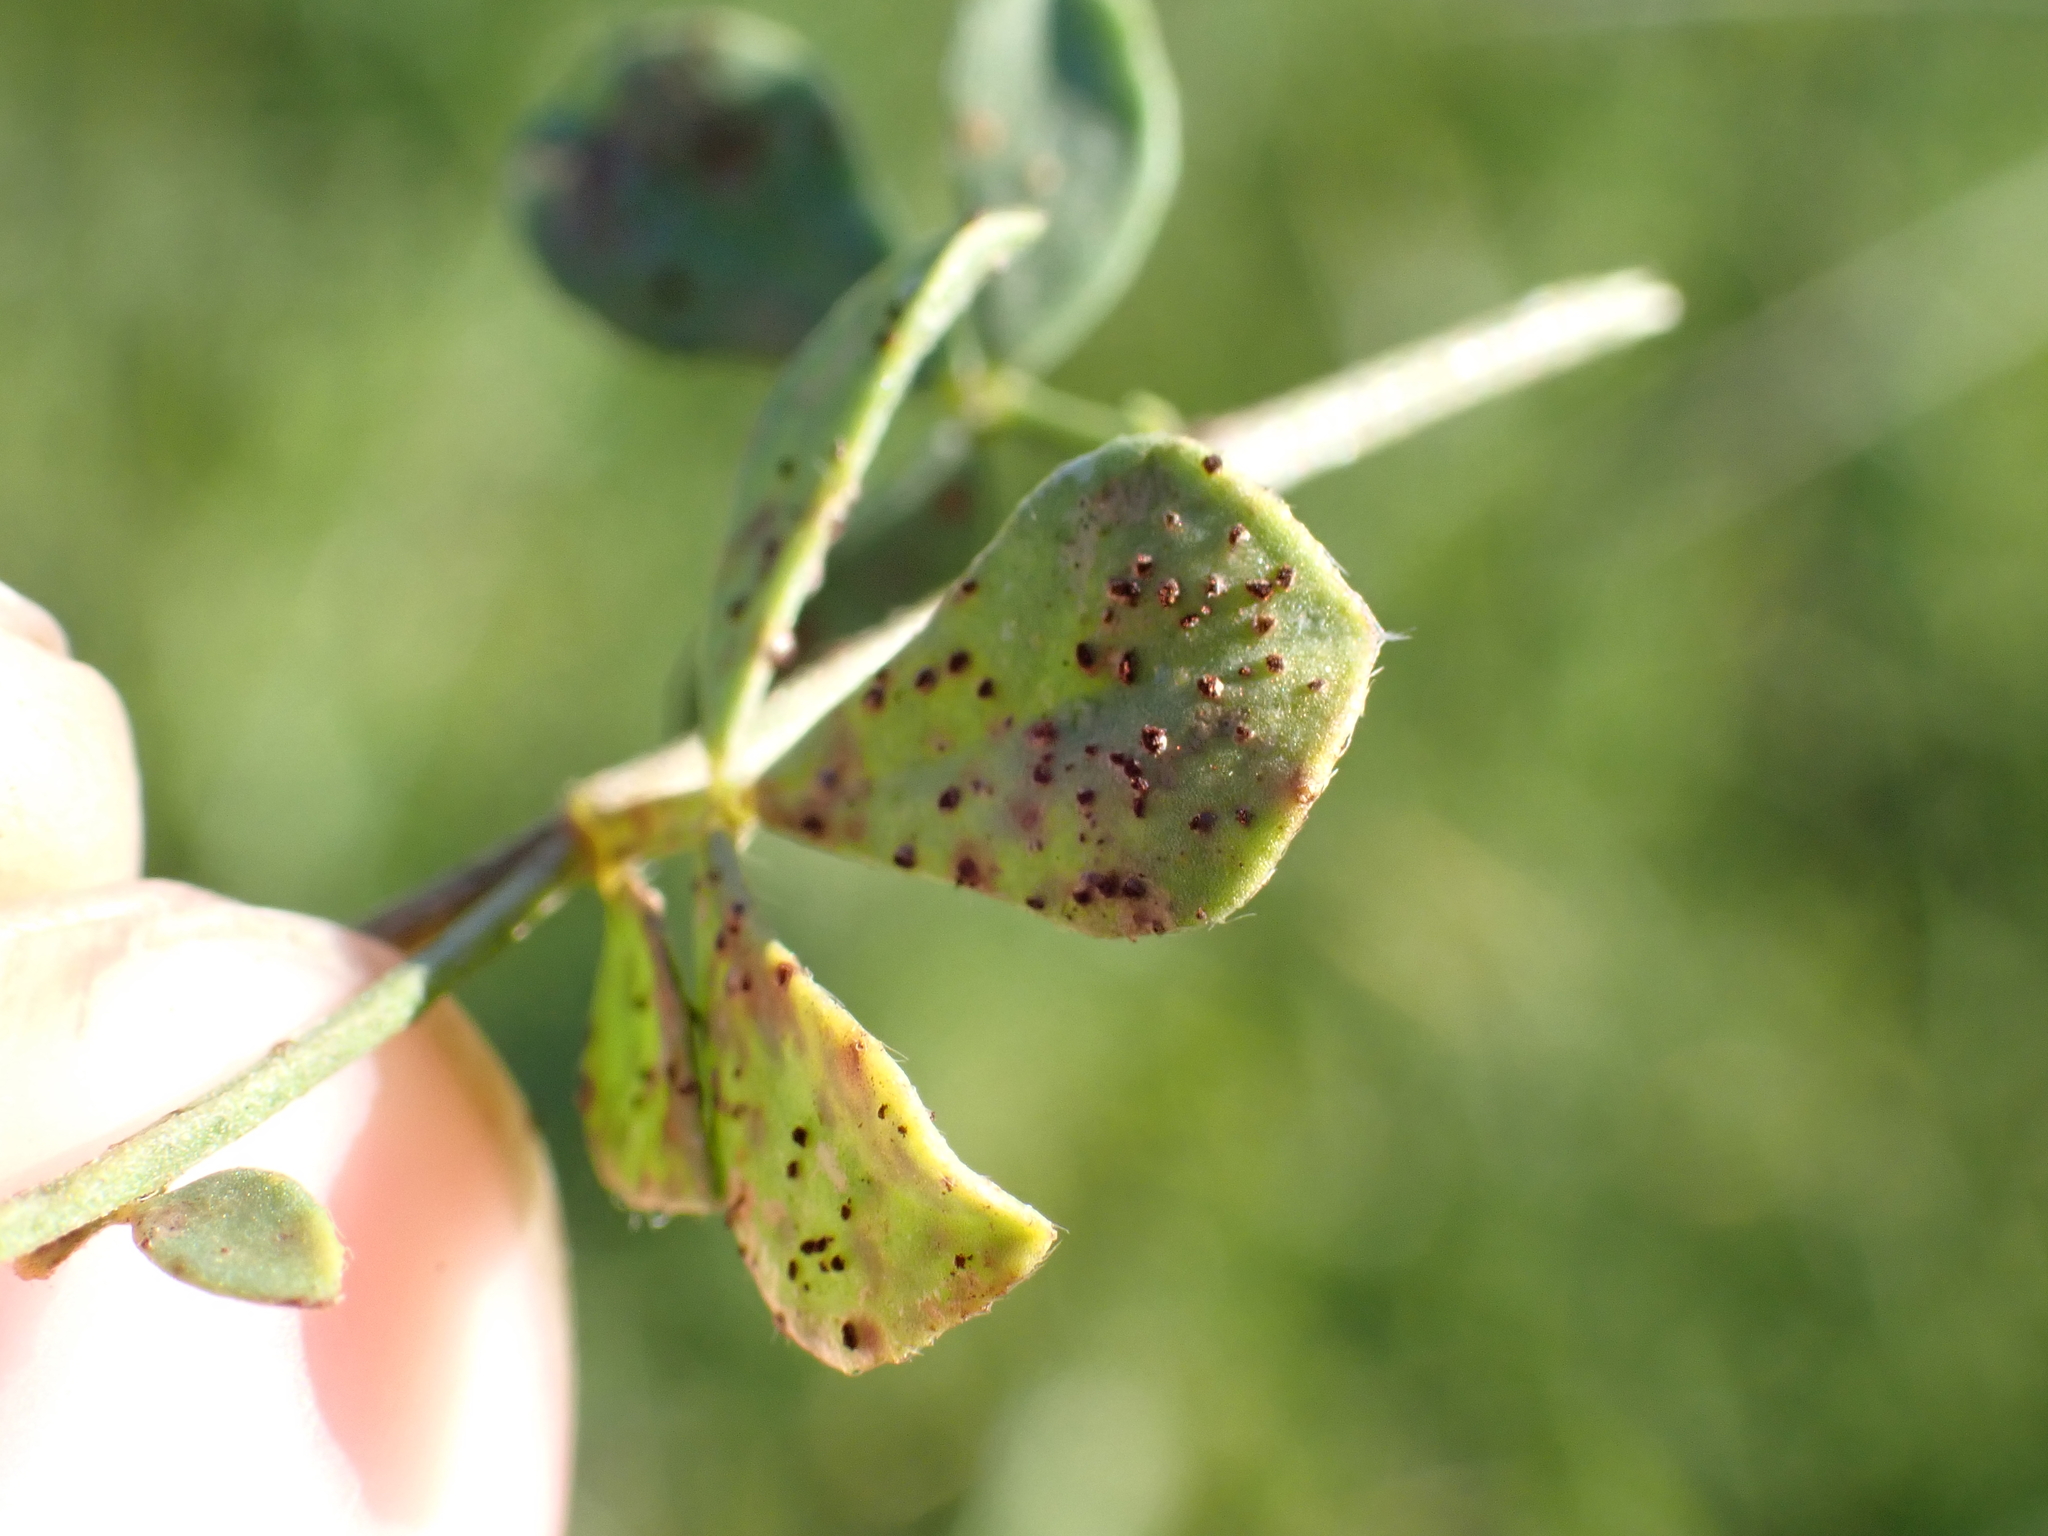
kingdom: Fungi
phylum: Basidiomycota
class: Pucciniomycetes
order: Pucciniales
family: Pucciniaceae
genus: Uromyces
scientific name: Uromyces euphorbiae-corniculati
